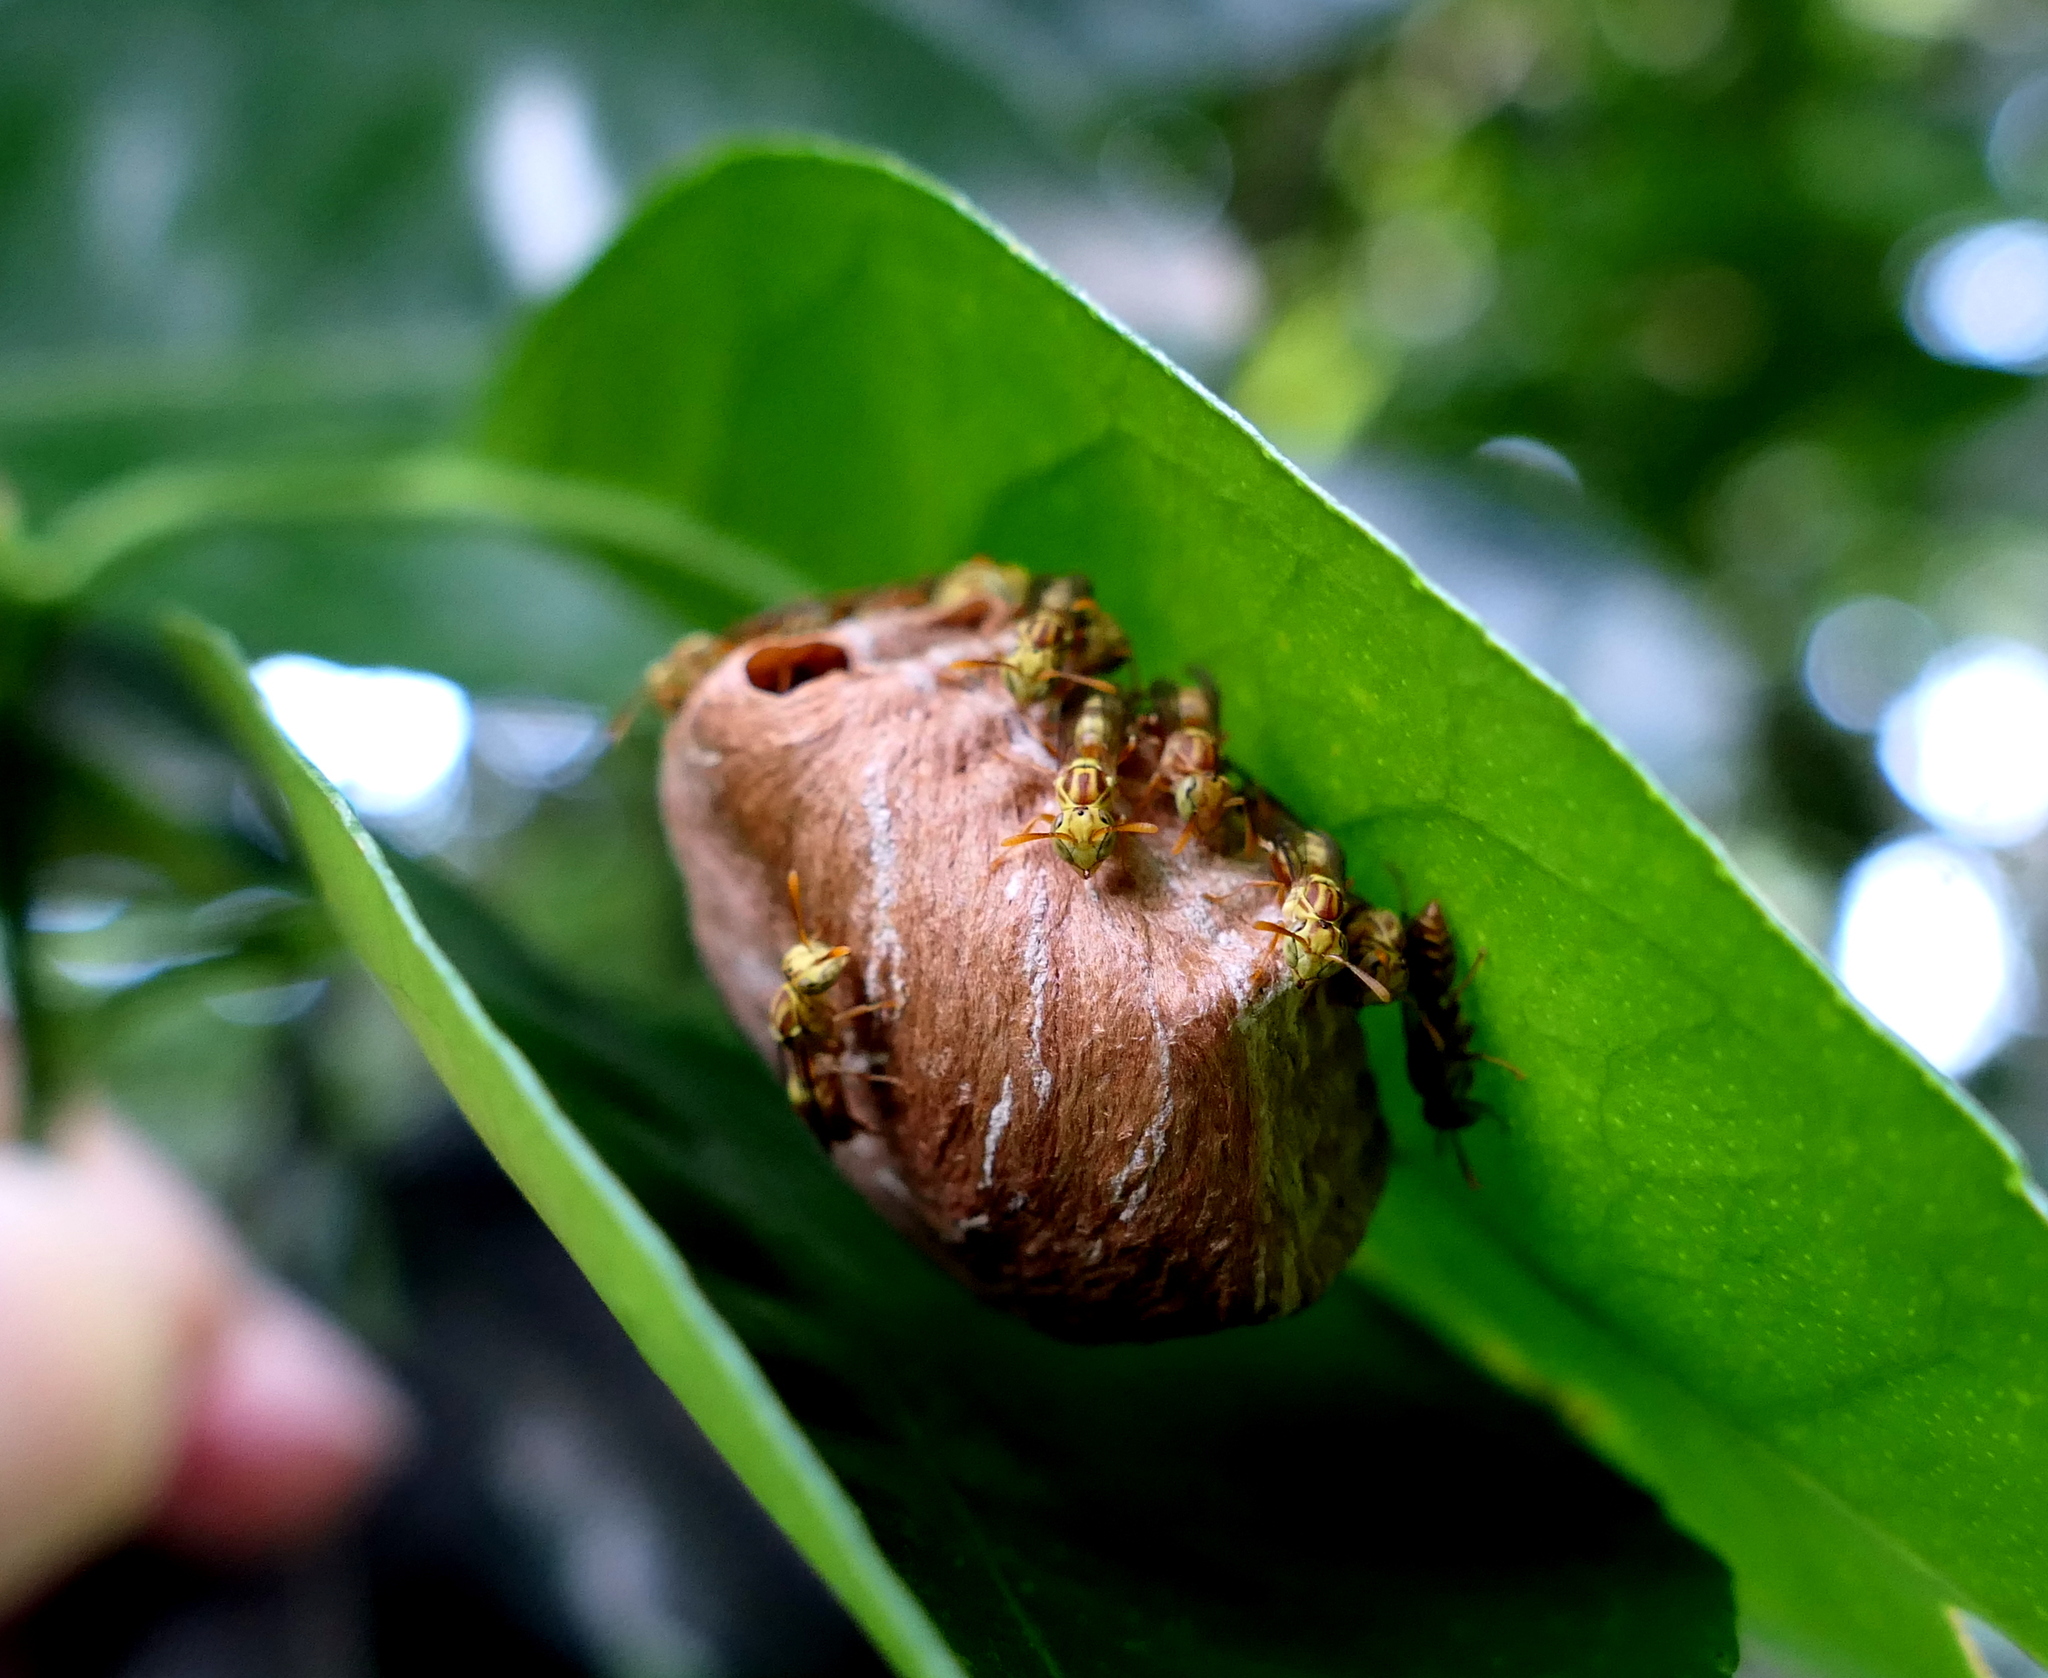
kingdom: Animalia
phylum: Arthropoda
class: Insecta
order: Hymenoptera
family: Vespidae
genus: Protopolybia
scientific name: Protopolybia potiguara
